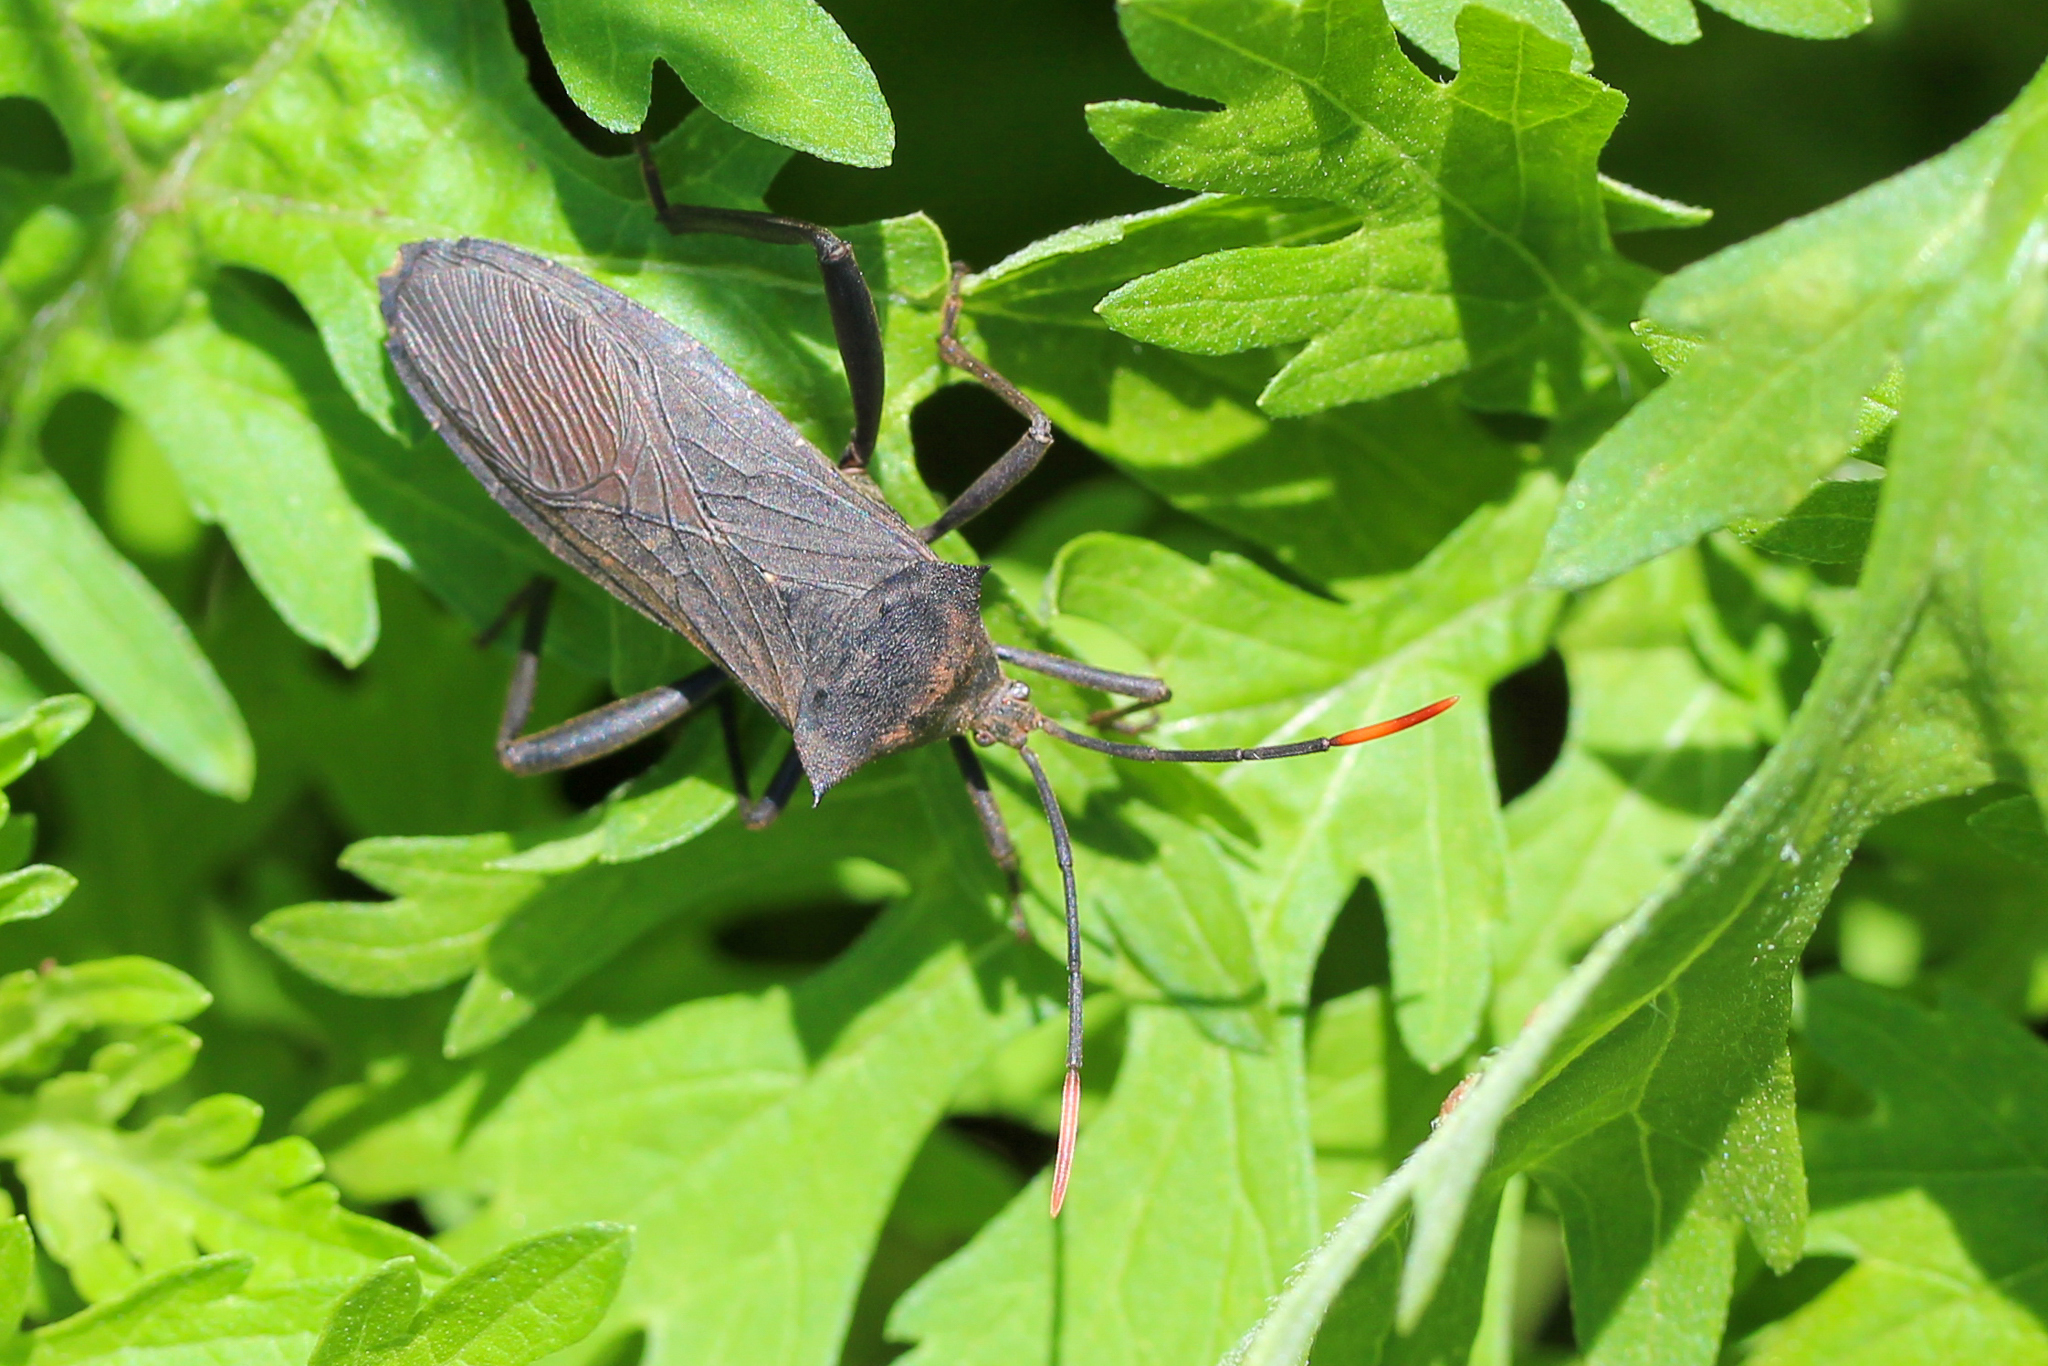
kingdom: Animalia
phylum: Arthropoda
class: Insecta
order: Hemiptera
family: Coreidae
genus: Anoplocnemis
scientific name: Anoplocnemis curvipes
